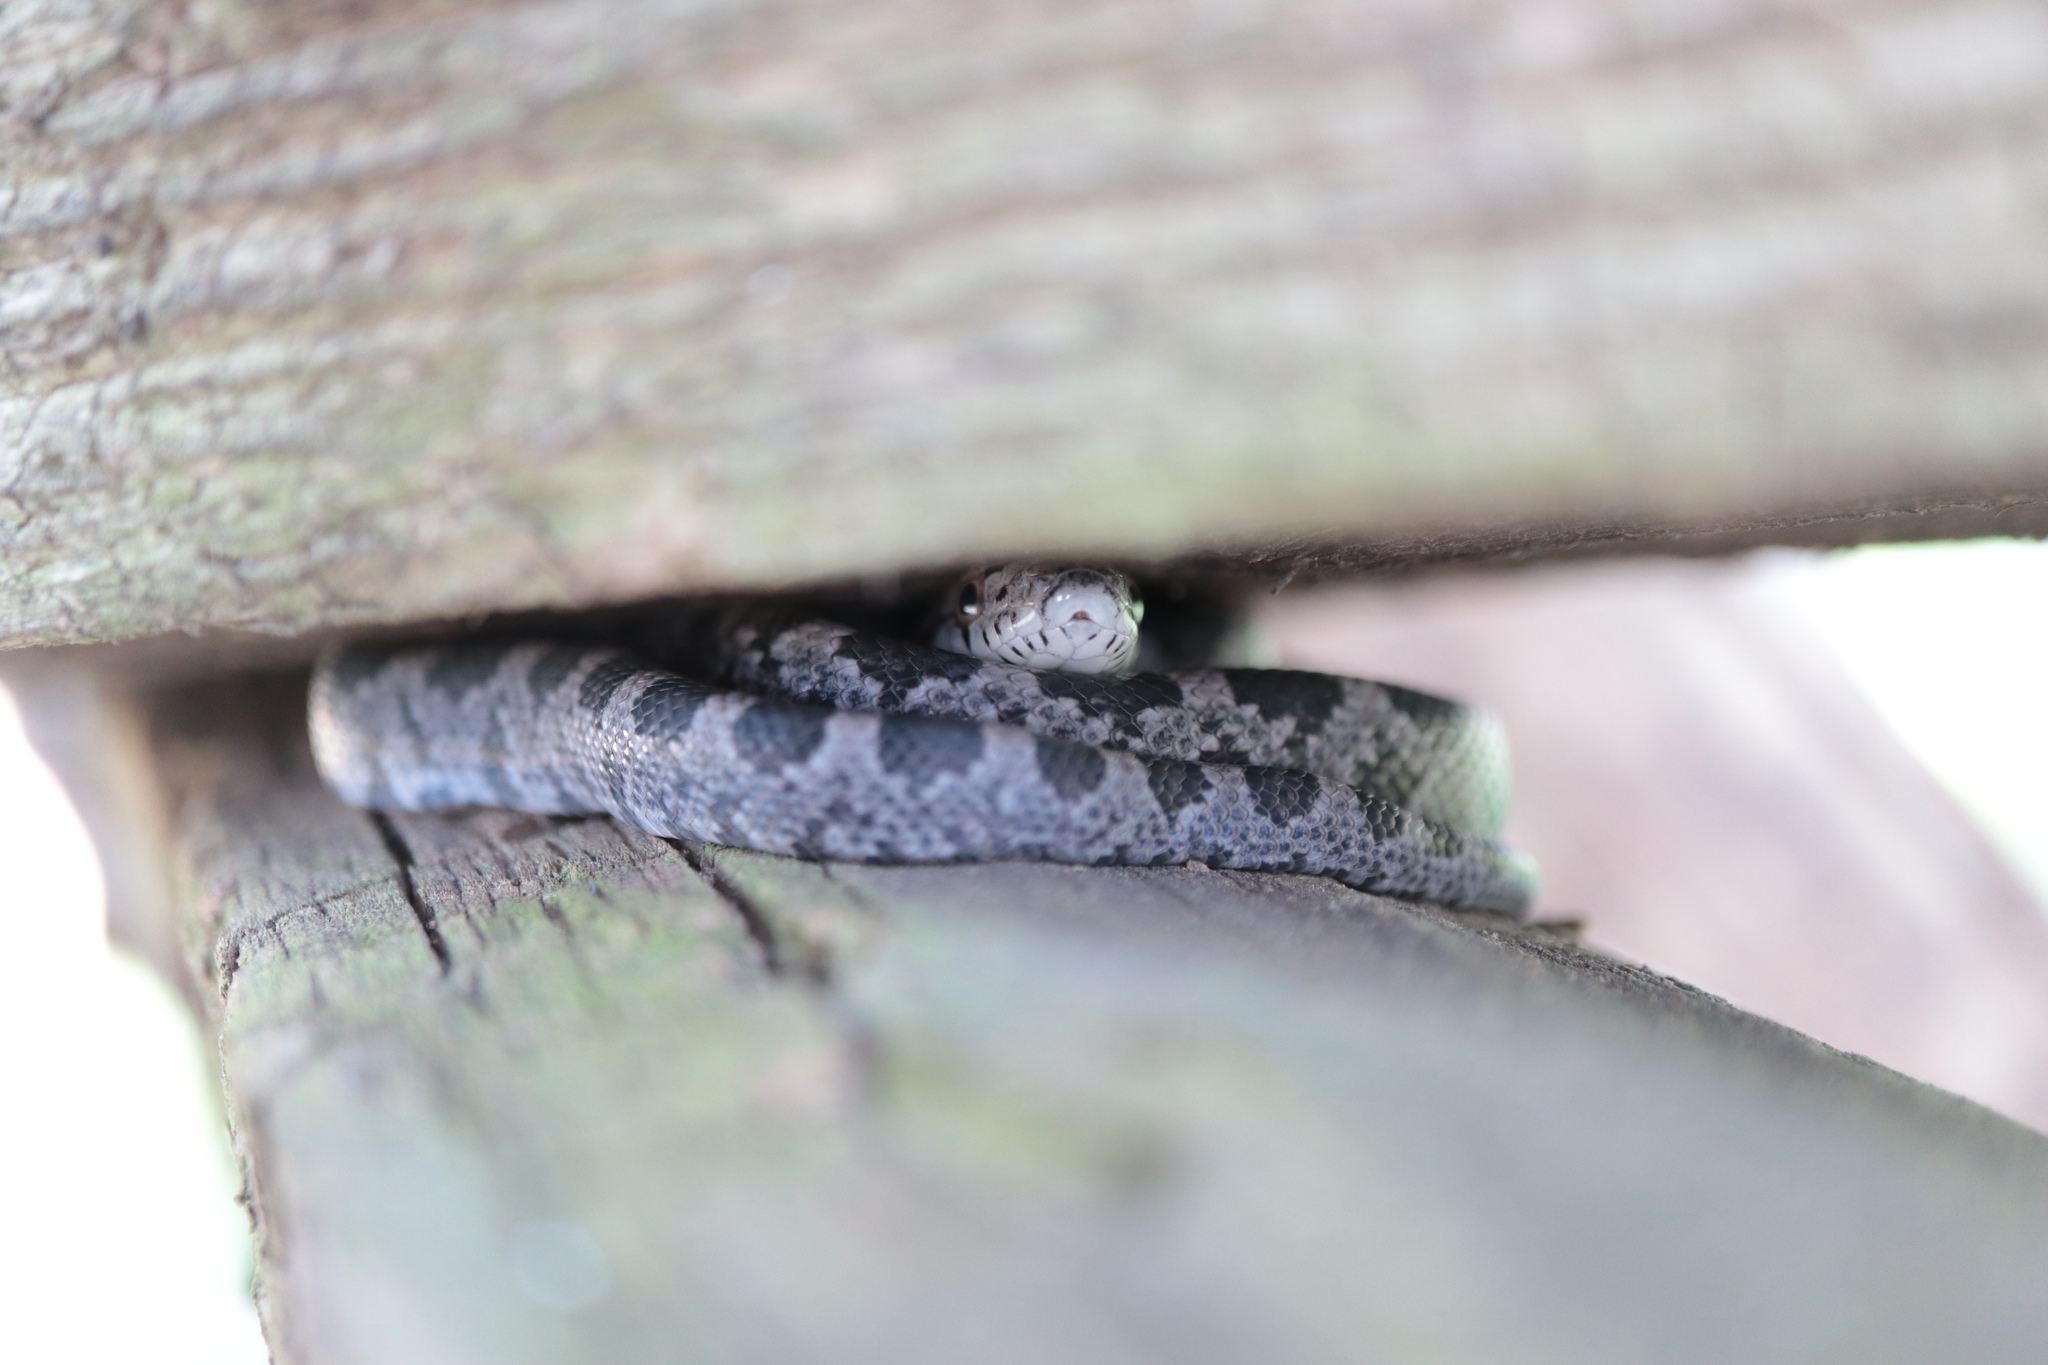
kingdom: Animalia
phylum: Chordata
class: Squamata
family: Colubridae
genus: Pantherophis
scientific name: Pantherophis alleghaniensis
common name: Eastern rat snake
